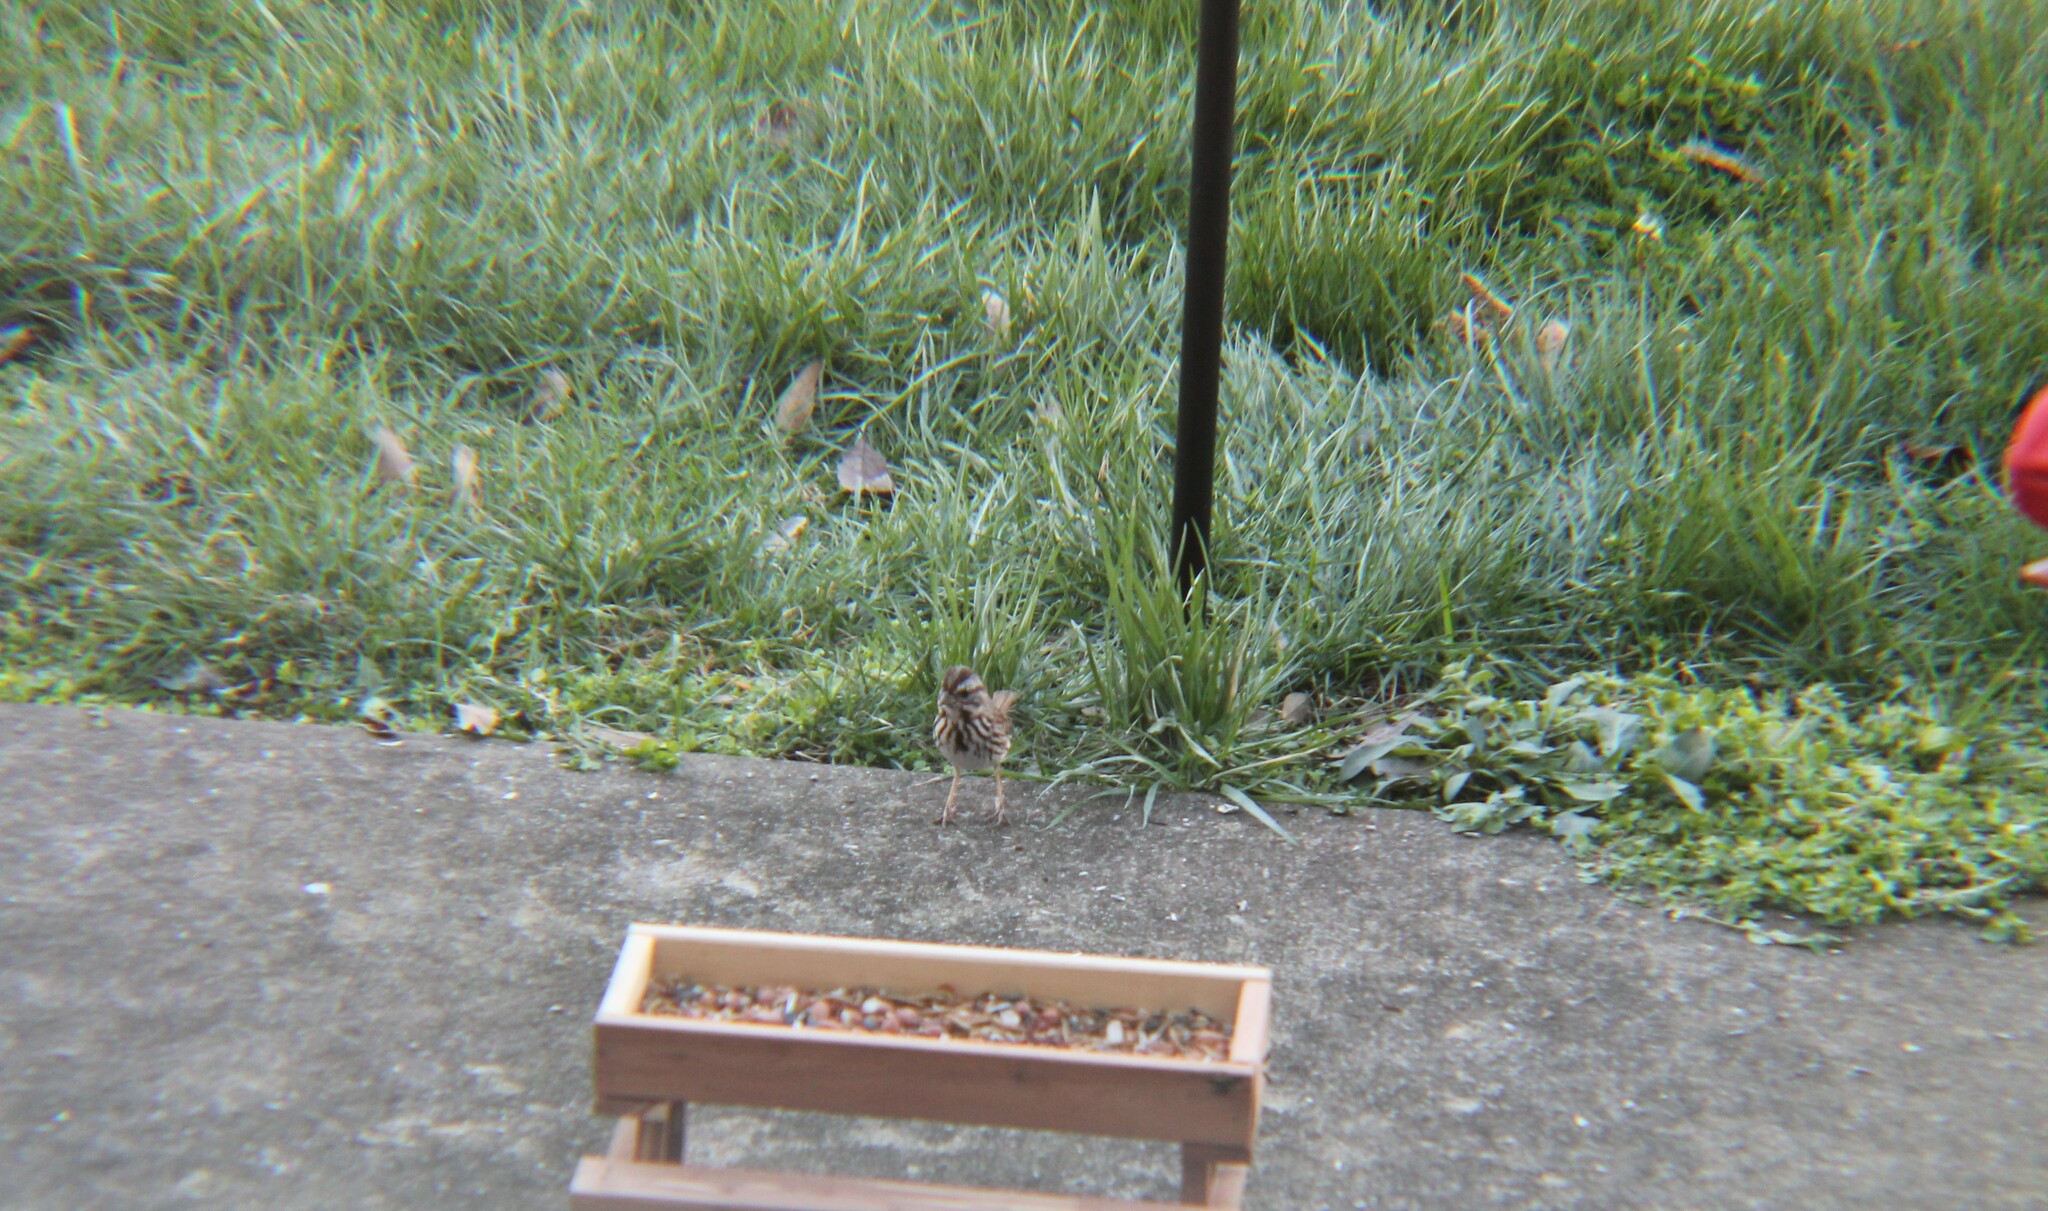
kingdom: Animalia
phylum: Chordata
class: Aves
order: Passeriformes
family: Passerellidae
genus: Melospiza
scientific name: Melospiza melodia
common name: Song sparrow
